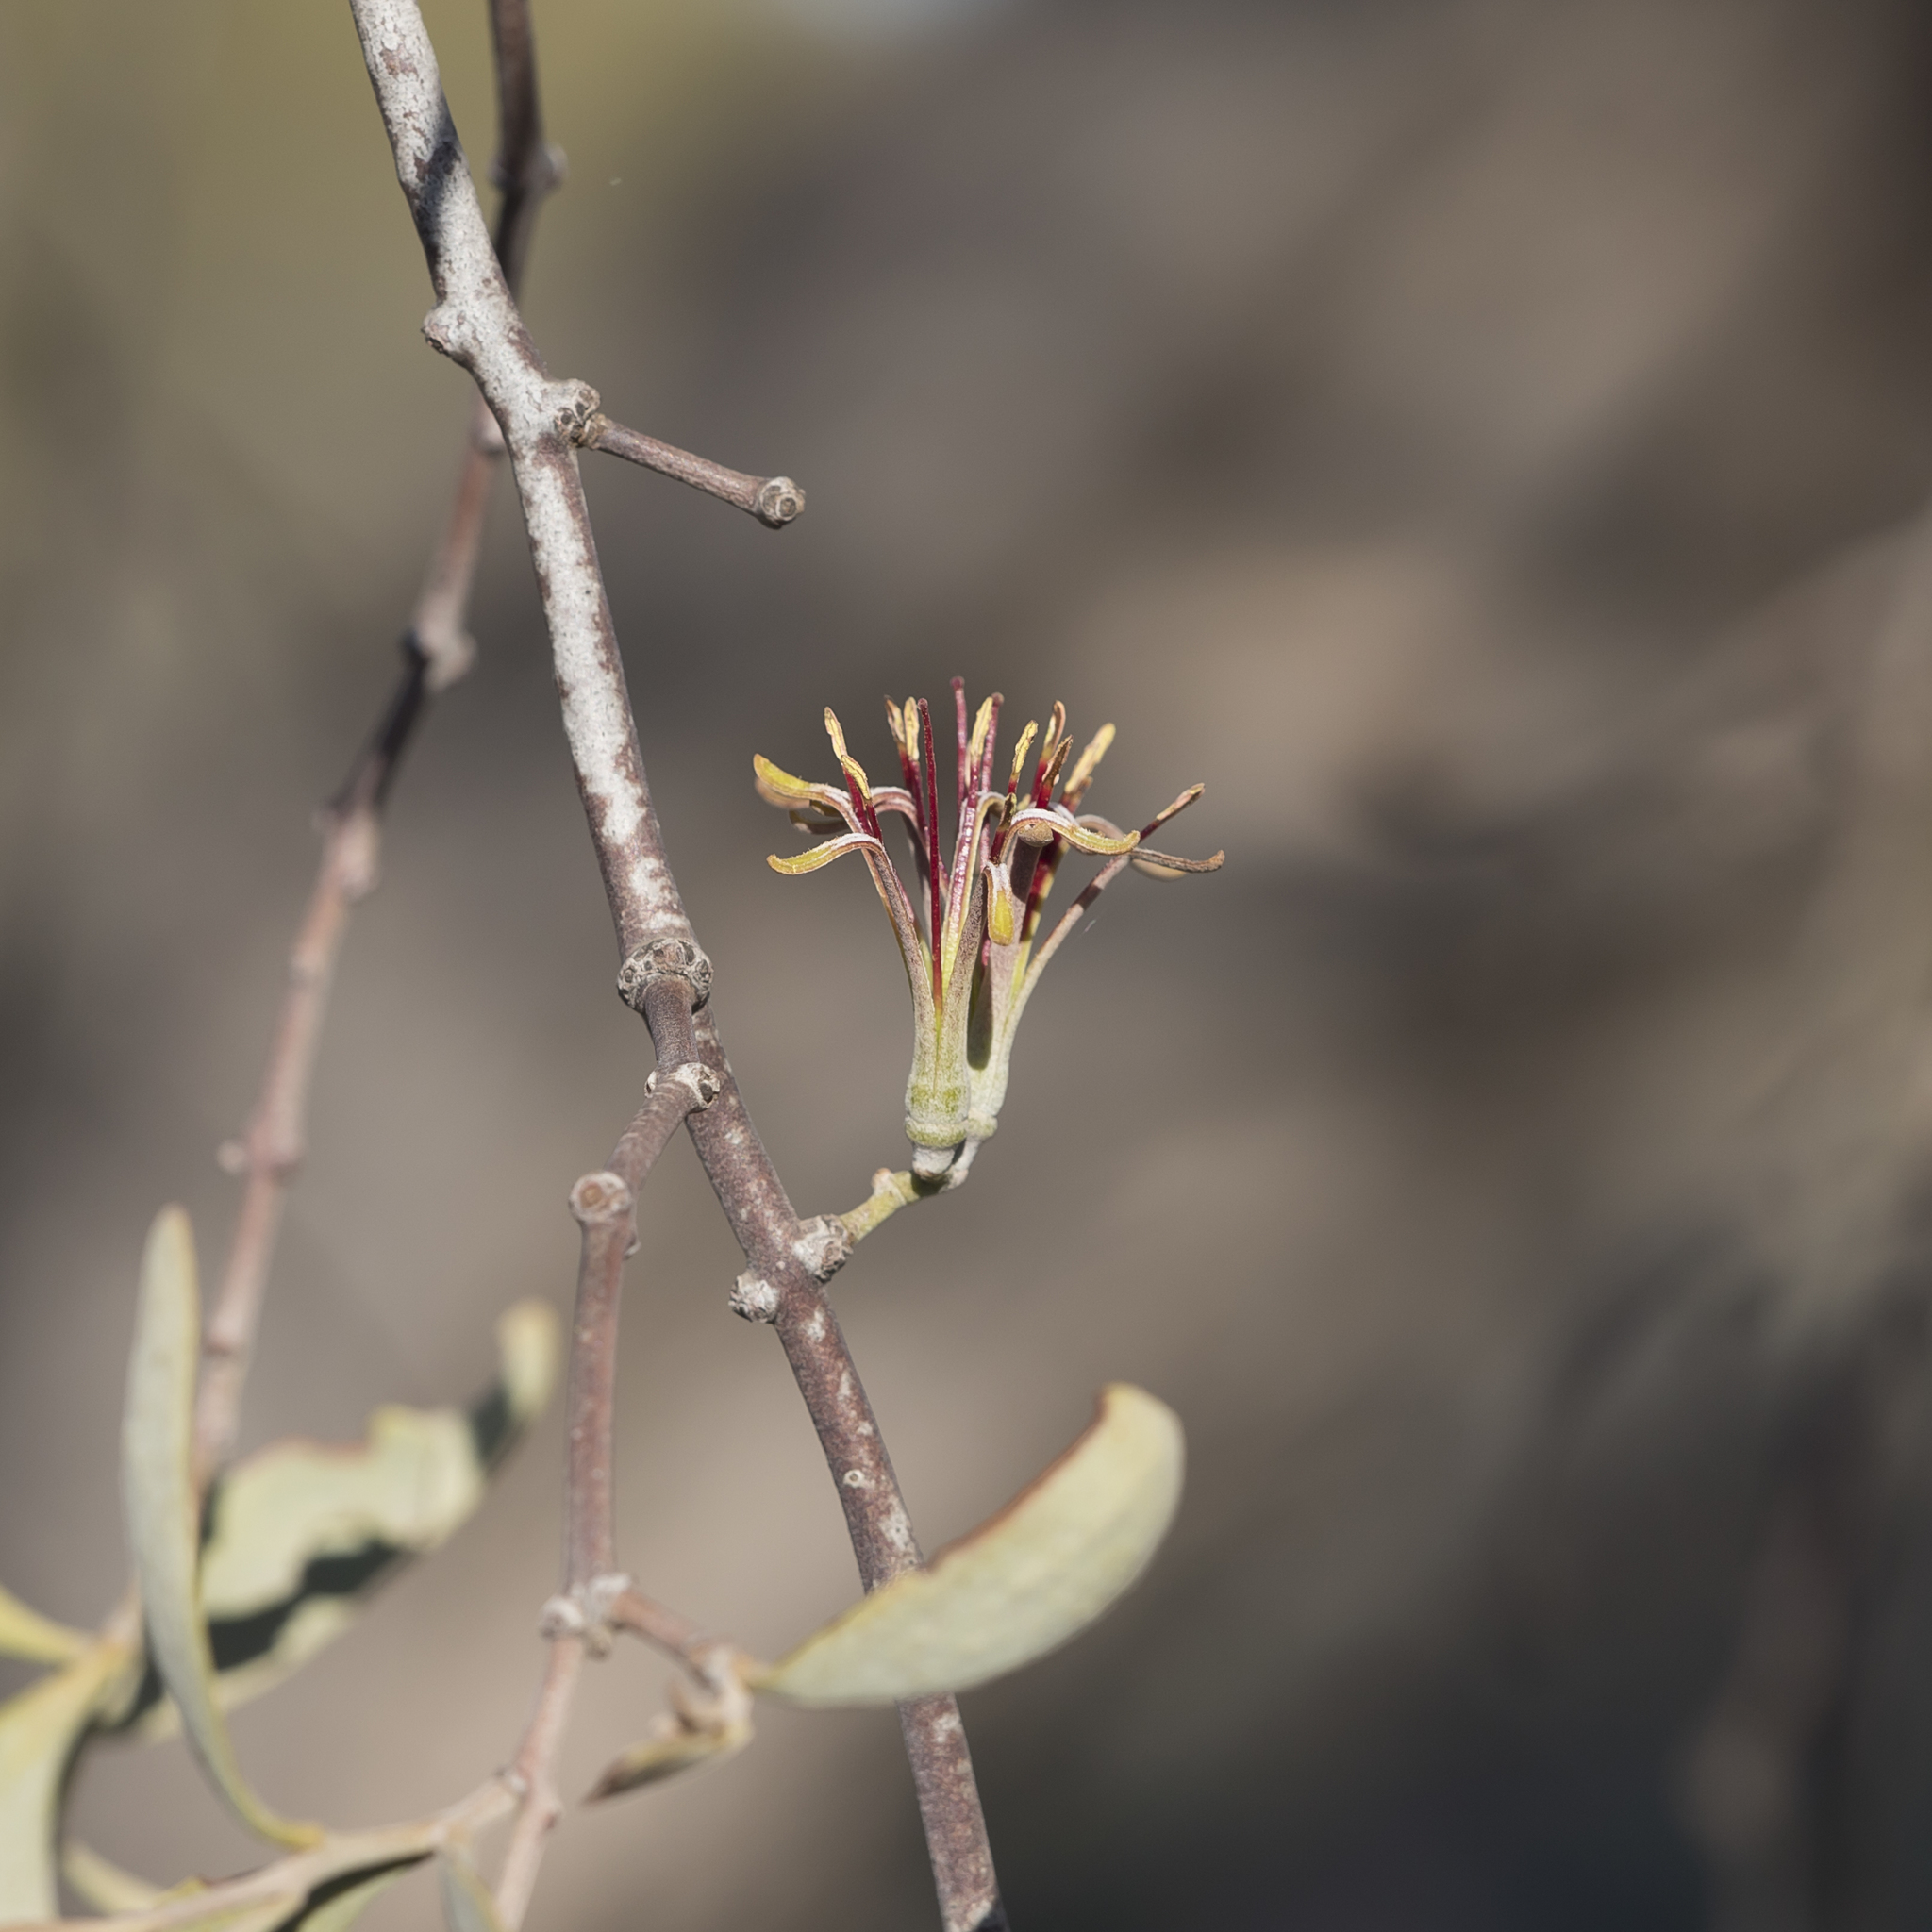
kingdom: Plantae
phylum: Tracheophyta
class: Magnoliopsida
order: Santalales
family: Loranthaceae
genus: Amyema
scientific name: Amyema quandang
